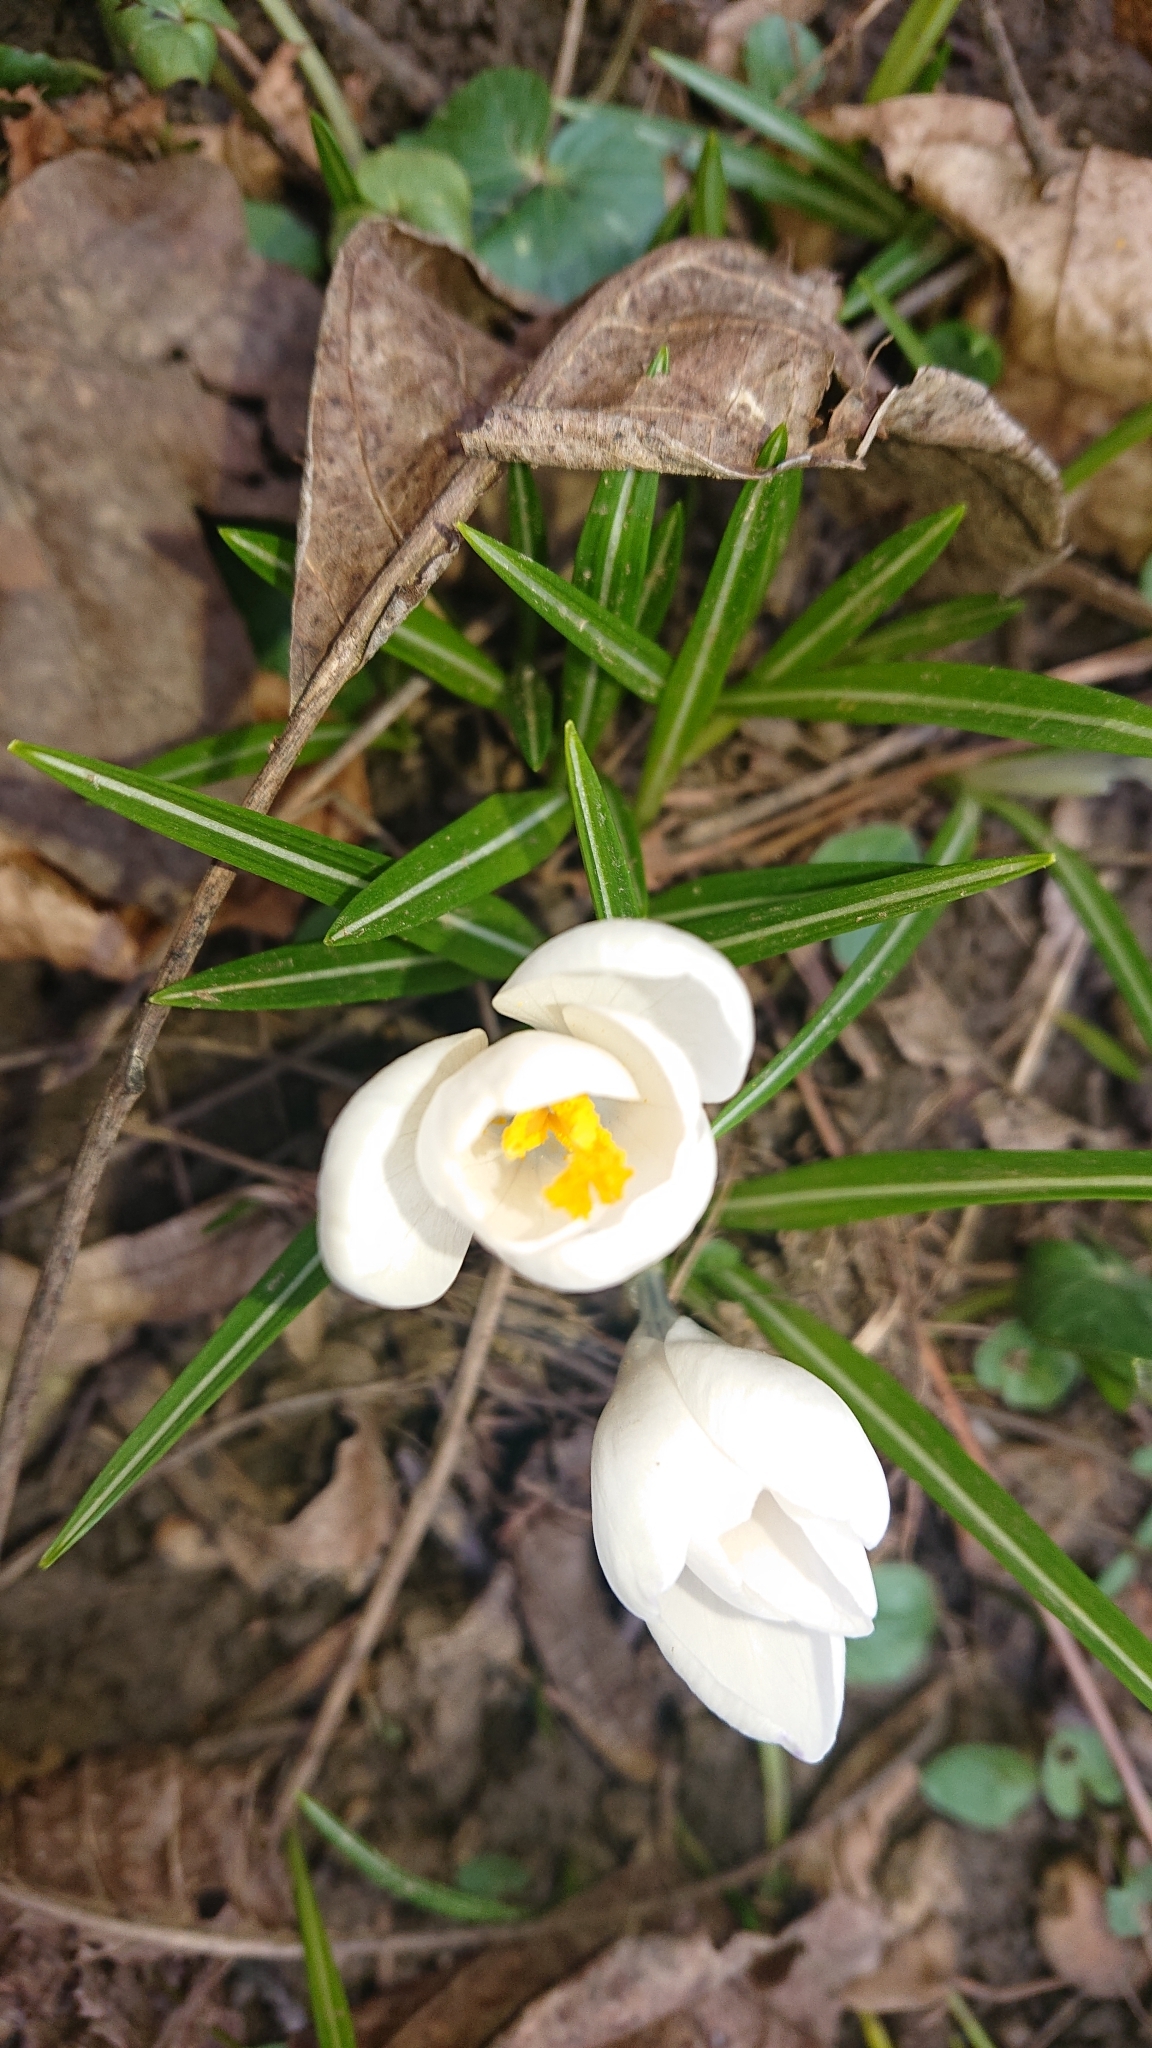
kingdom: Plantae
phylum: Tracheophyta
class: Liliopsida
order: Asparagales
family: Iridaceae
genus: Crocus
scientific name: Crocus heuffelianus
